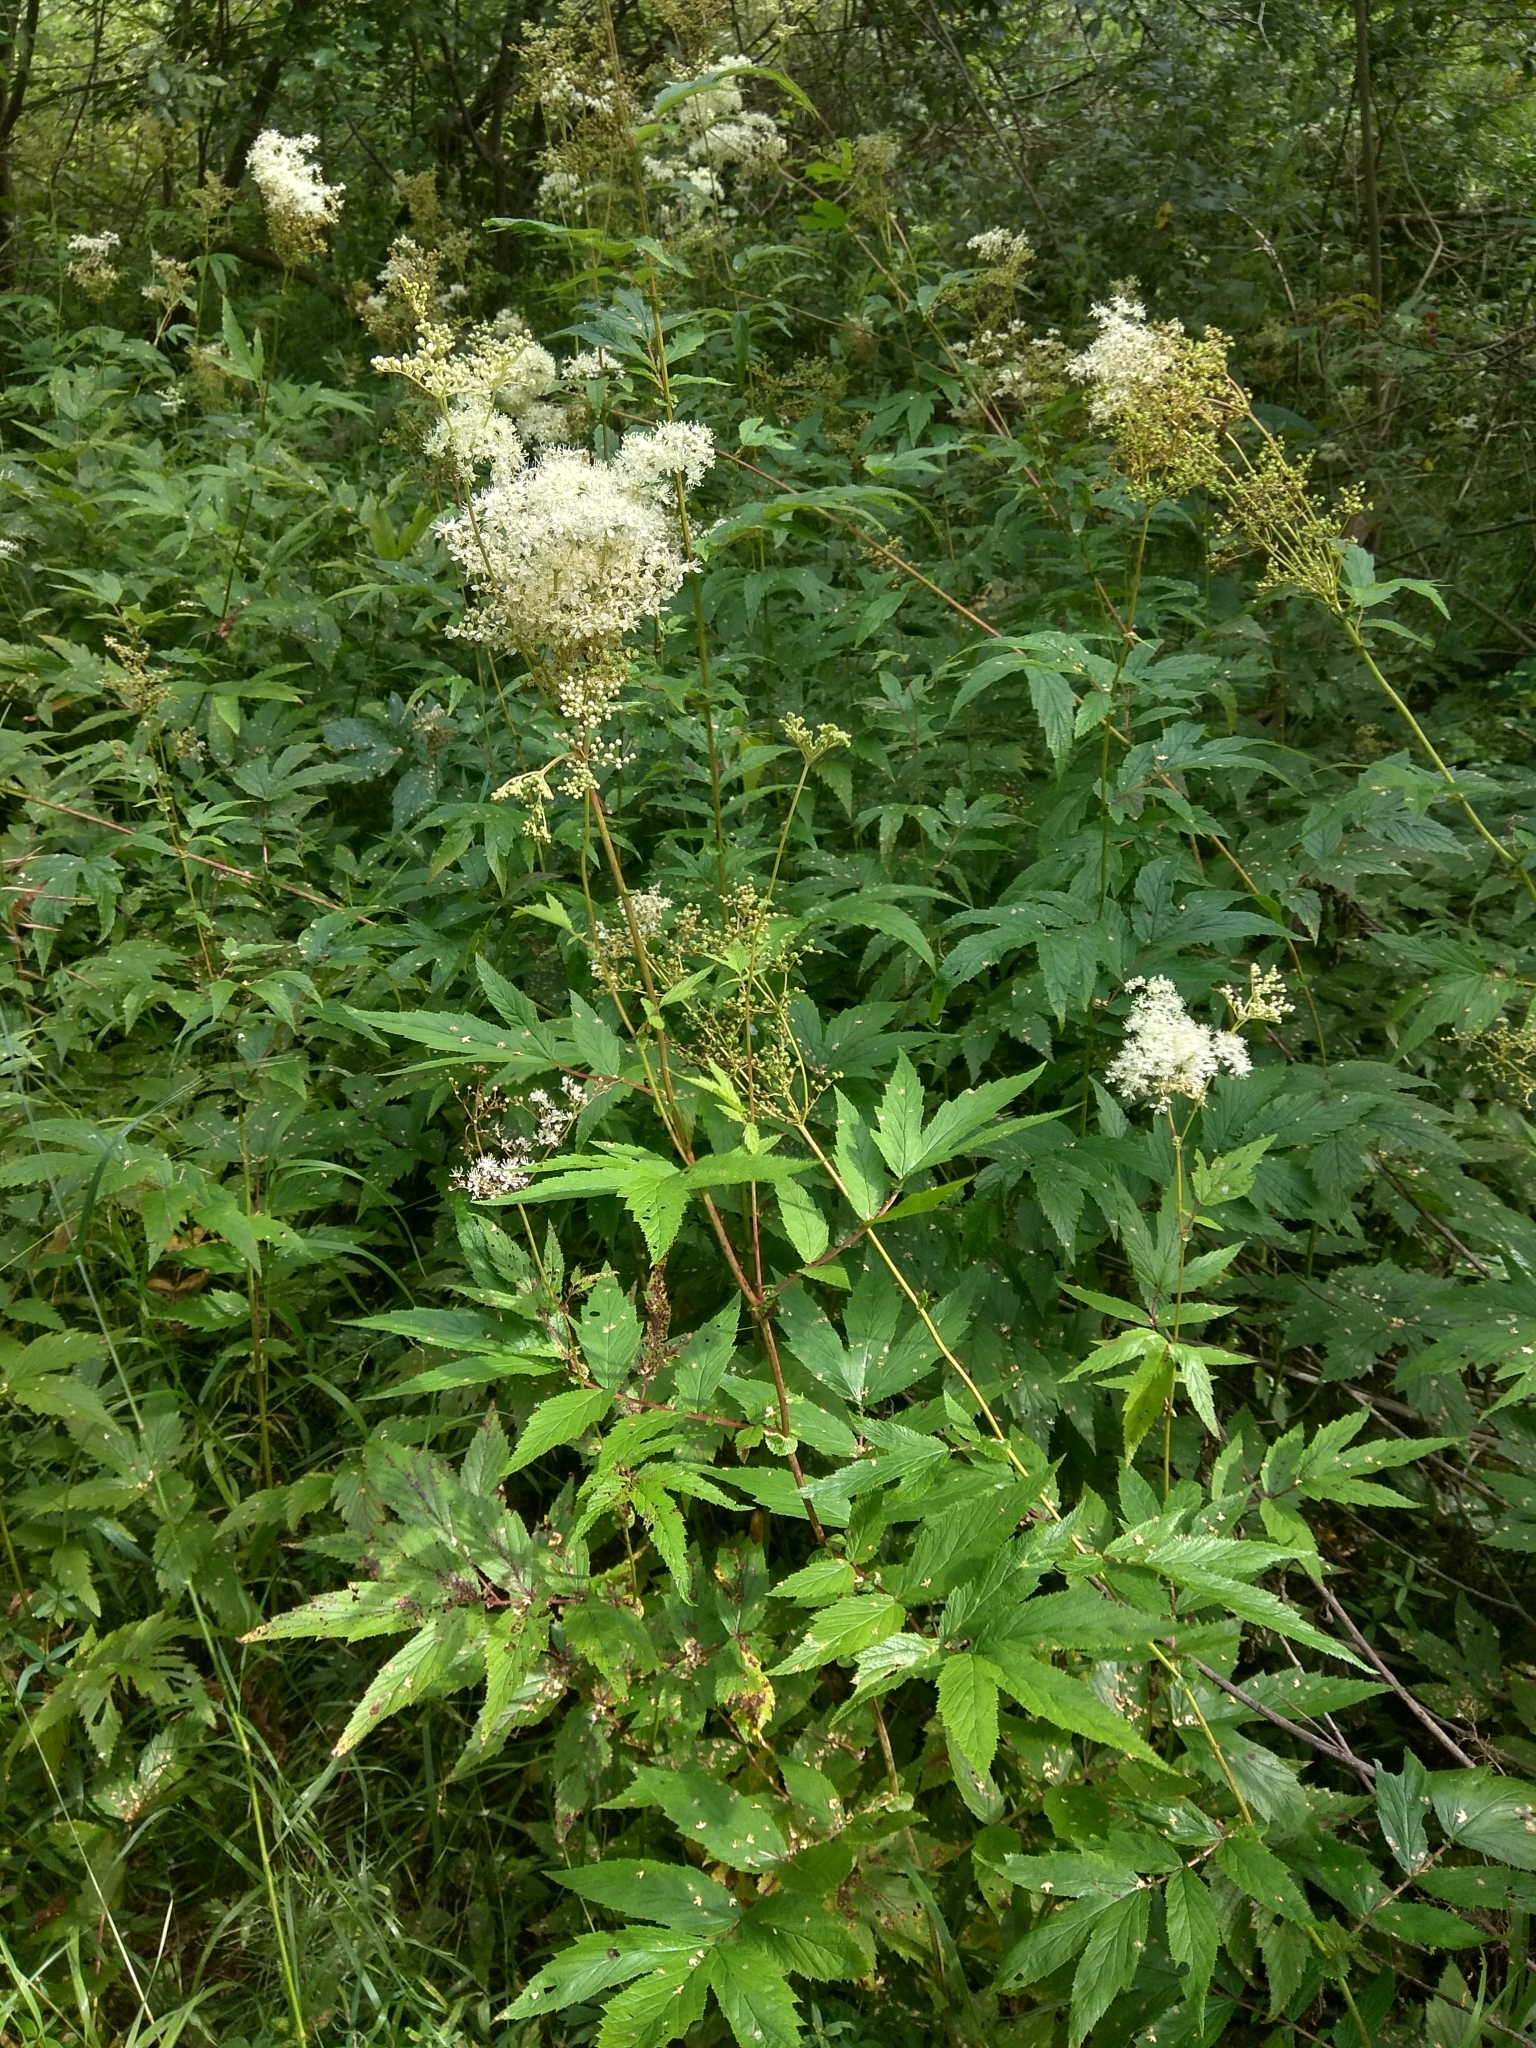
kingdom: Plantae
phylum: Tracheophyta
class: Magnoliopsida
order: Rosales
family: Rosaceae
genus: Filipendula
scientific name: Filipendula ulmaria
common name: Meadowsweet
